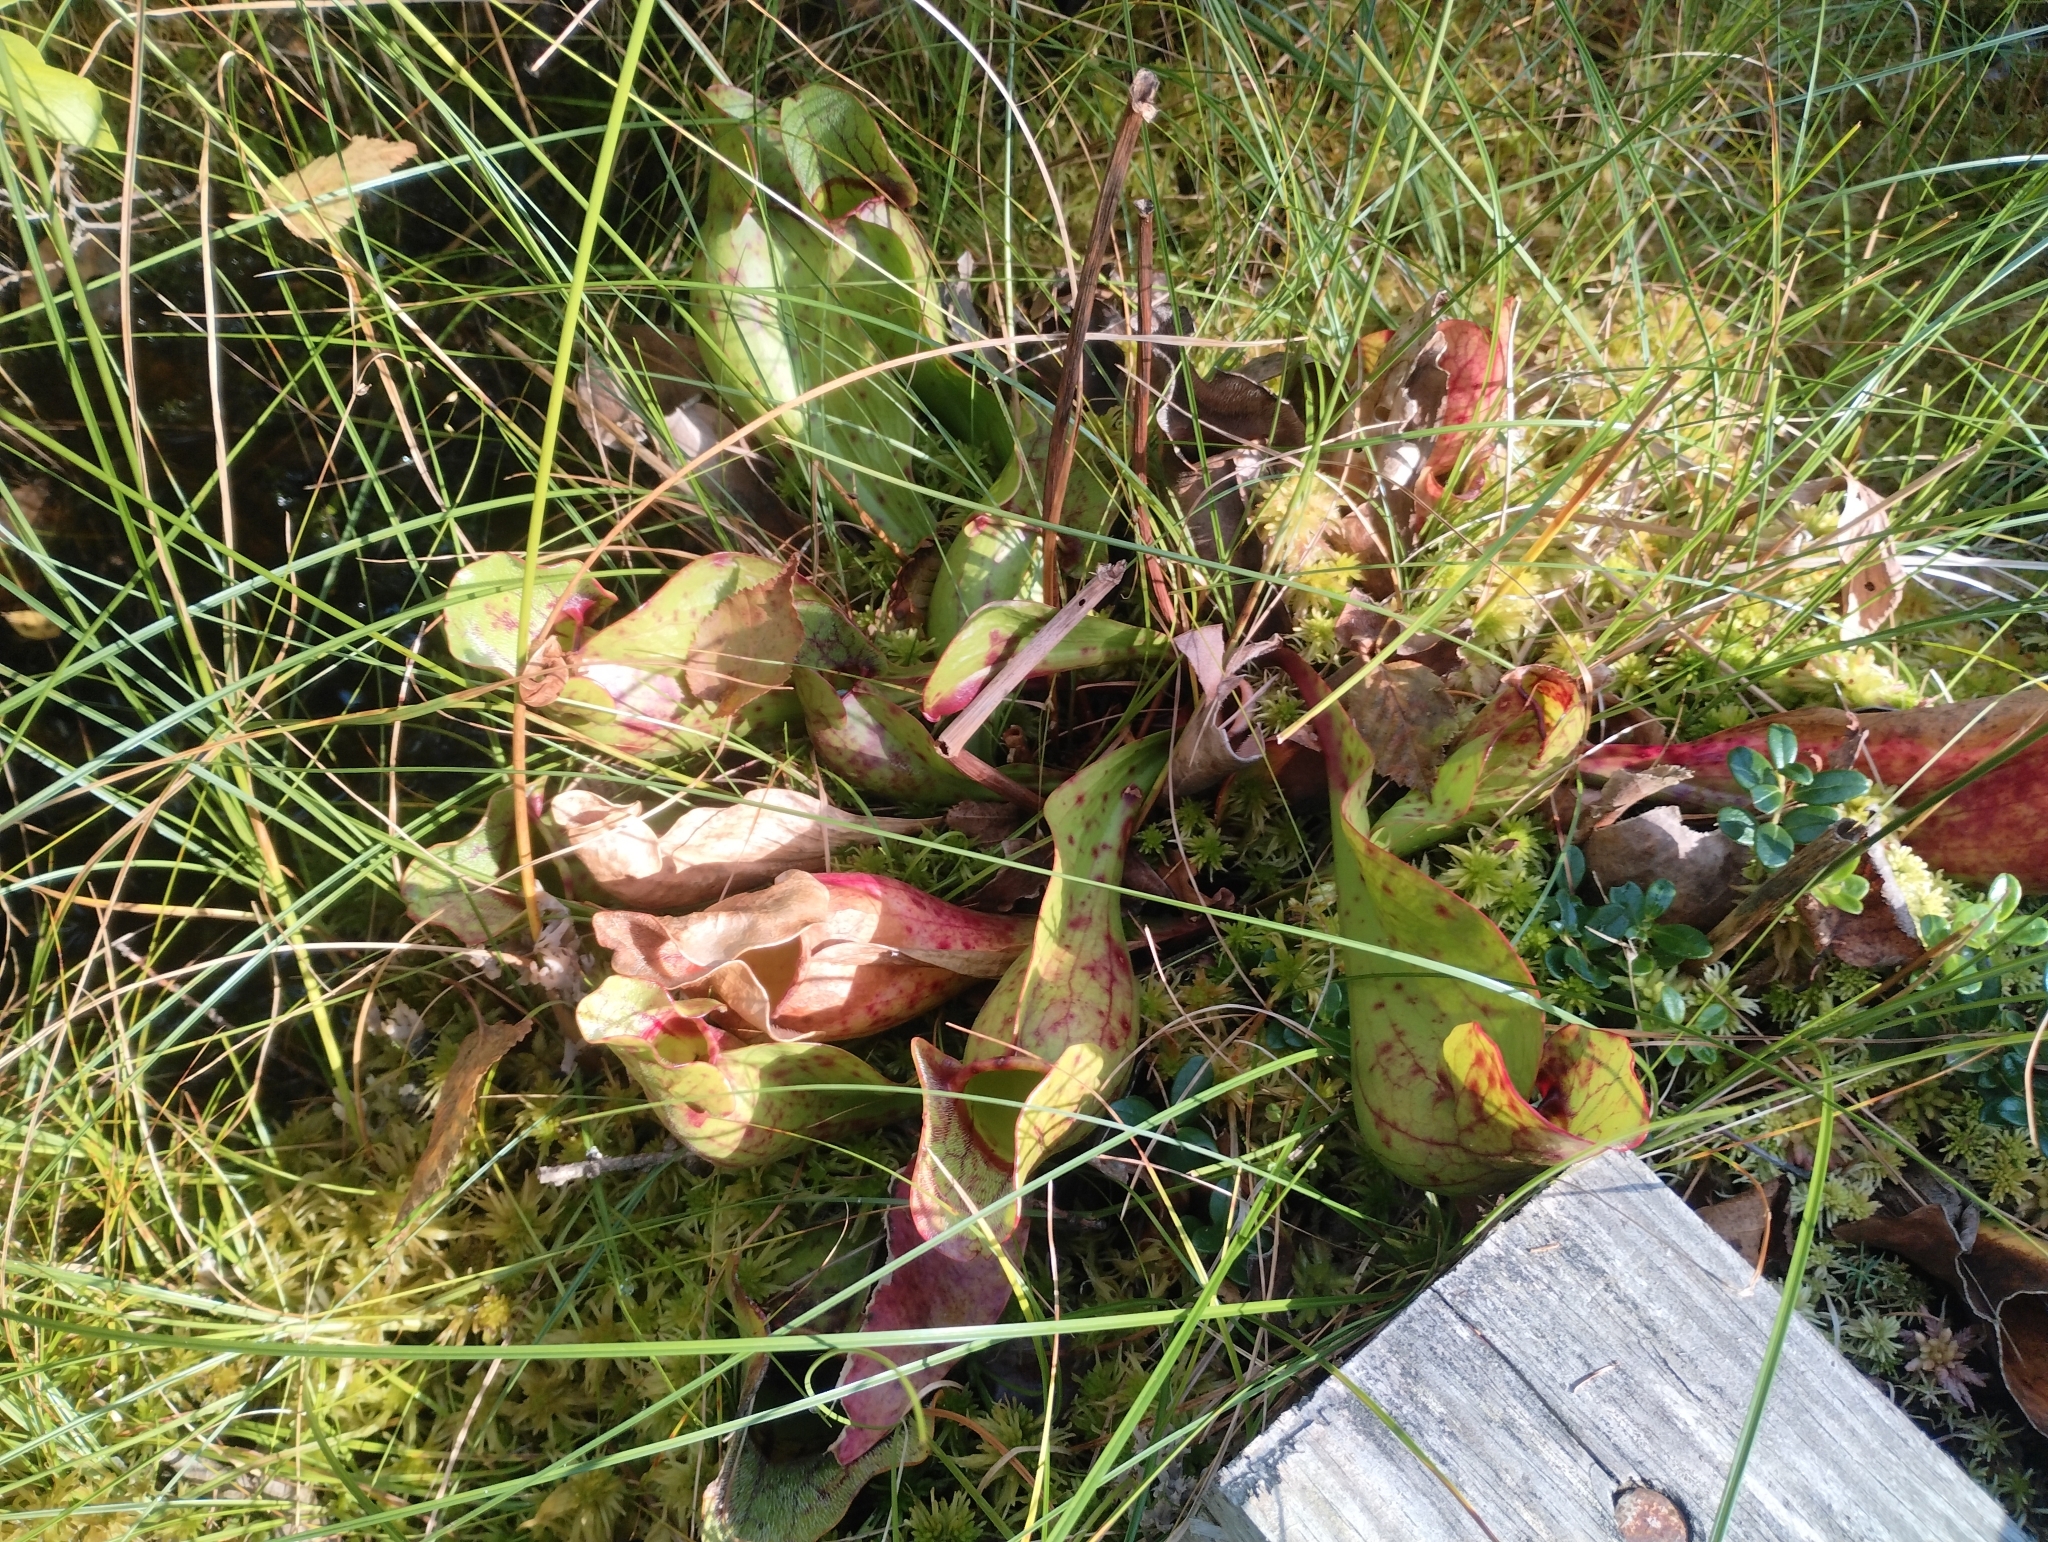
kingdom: Plantae
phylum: Tracheophyta
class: Magnoliopsida
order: Ericales
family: Sarraceniaceae
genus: Sarracenia
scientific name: Sarracenia purpurea
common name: Pitcherplant
